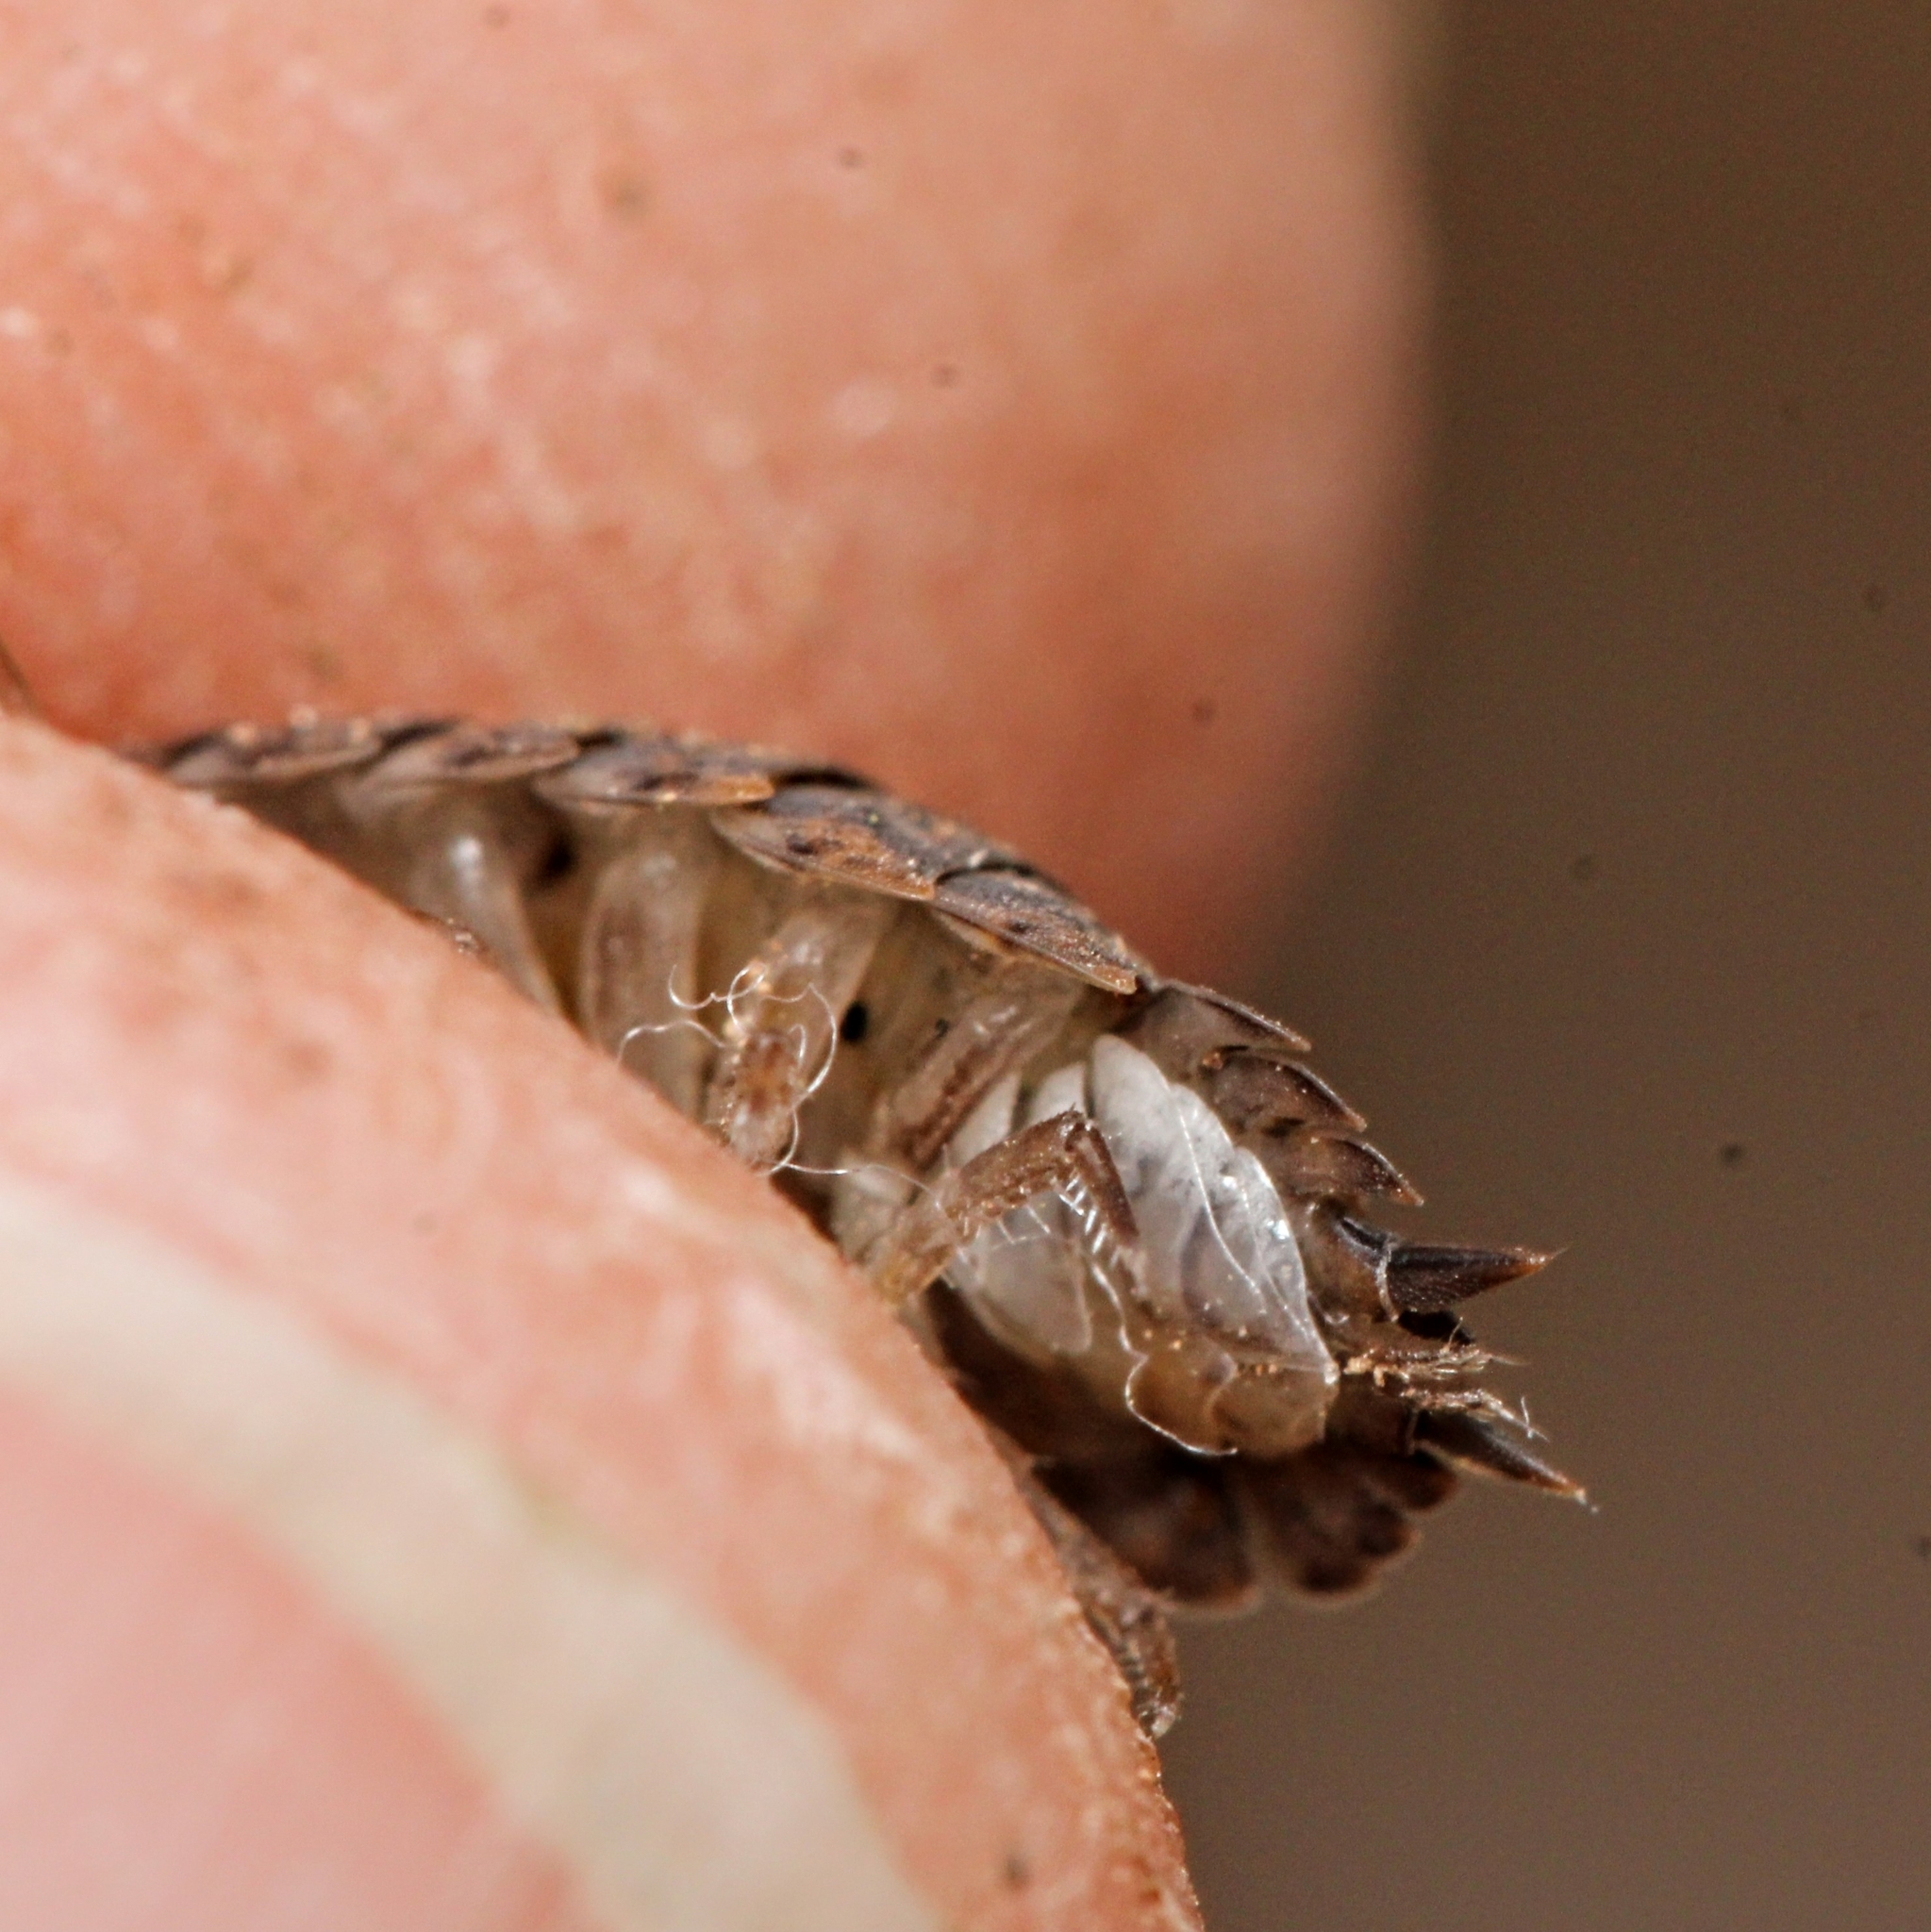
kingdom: Animalia
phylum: Arthropoda
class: Malacostraca
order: Isopoda
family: Trachelipodidae
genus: Trachelipus
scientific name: Trachelipus rathkii
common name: Isopod
